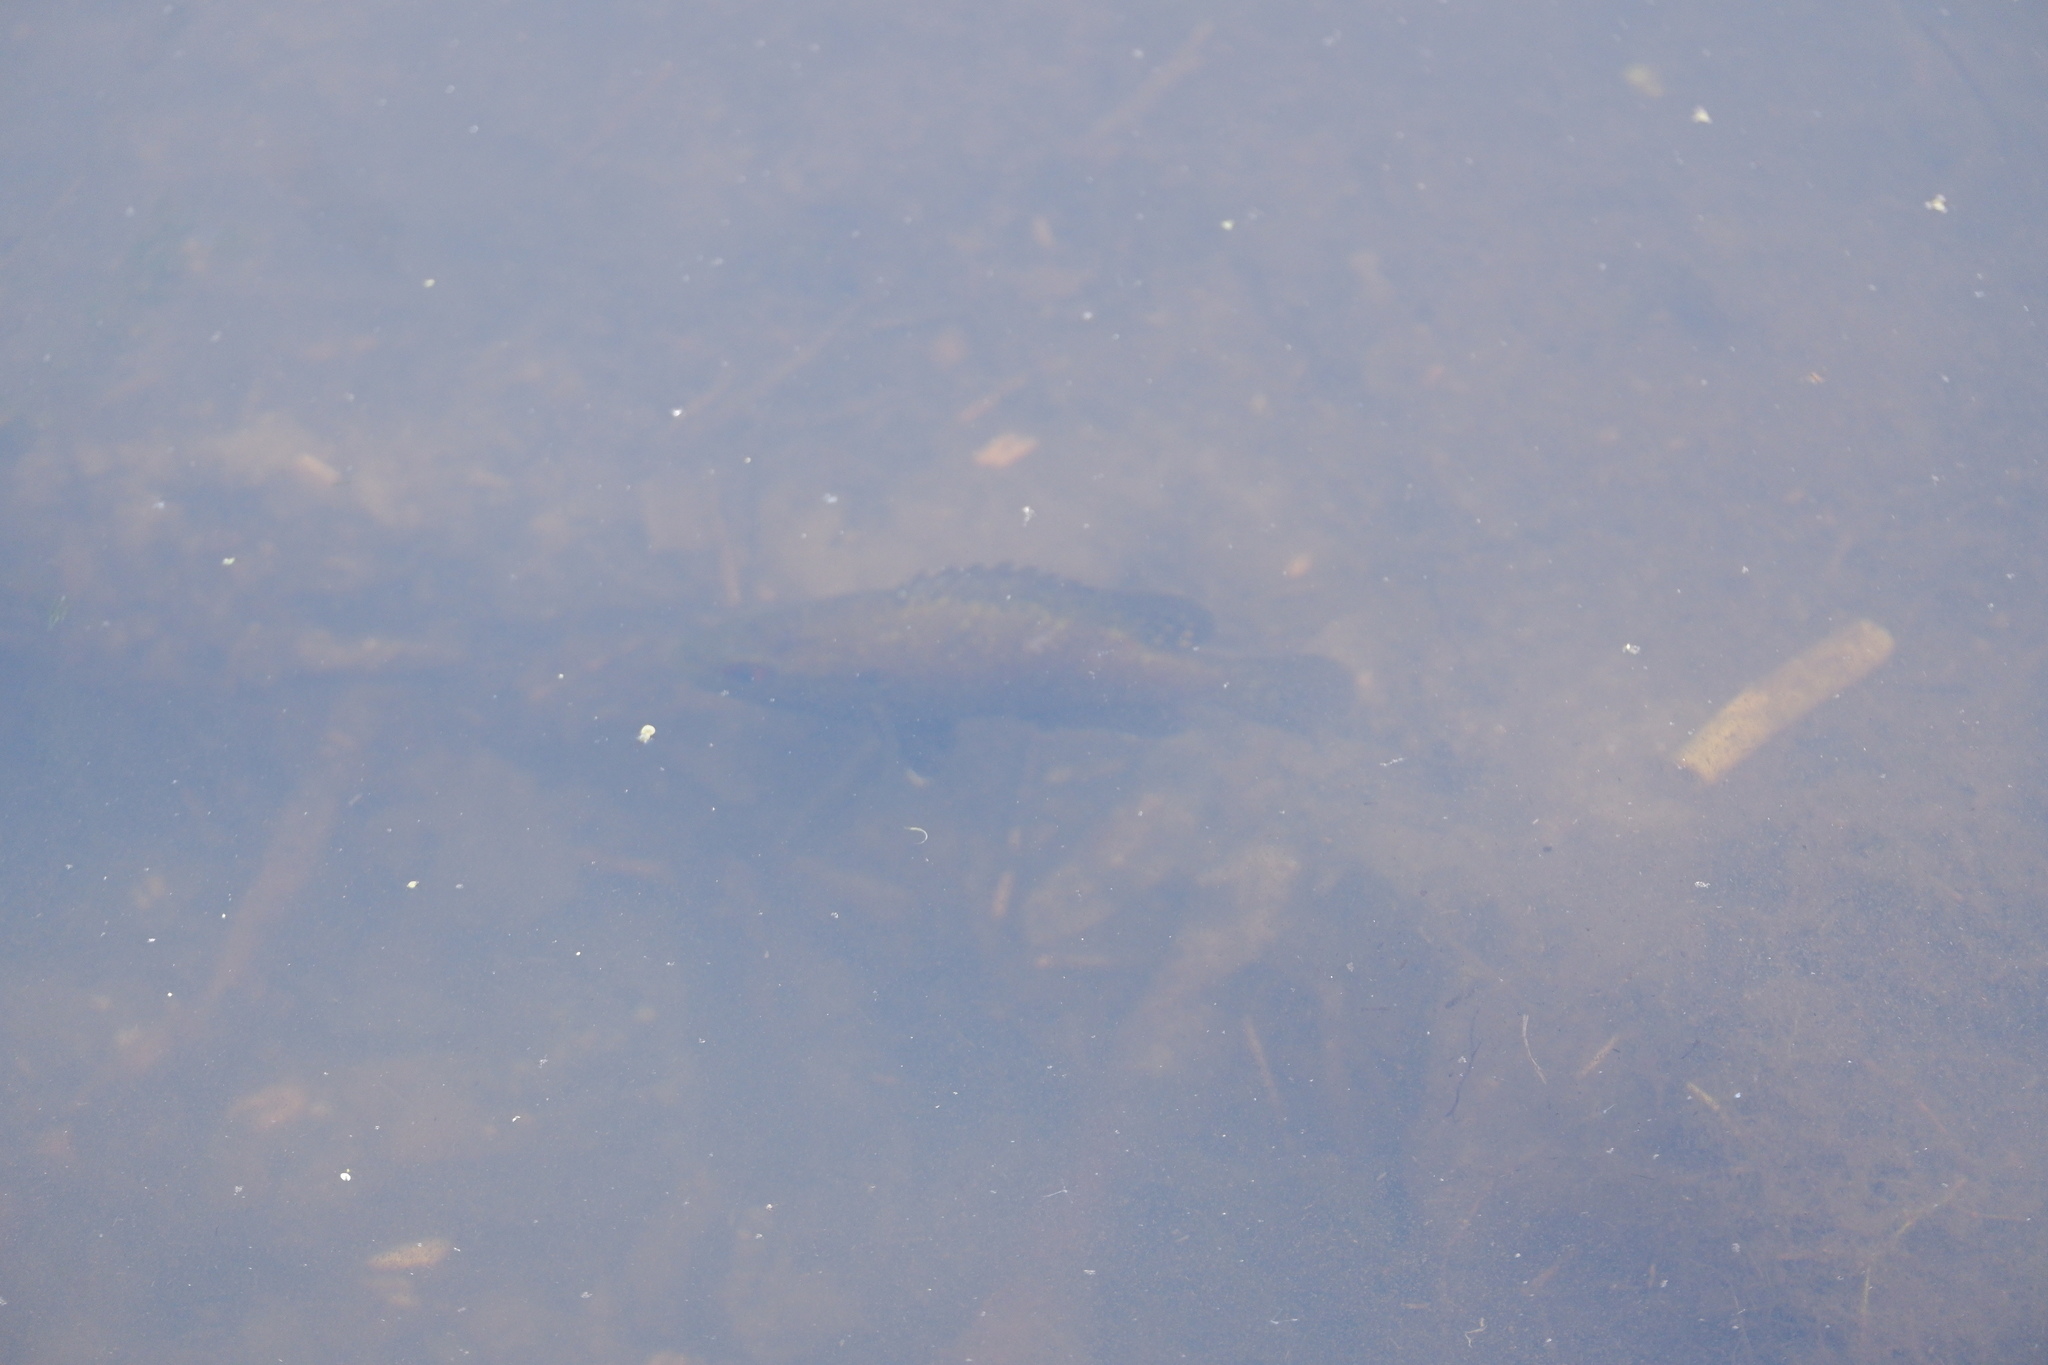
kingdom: Animalia
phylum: Chordata
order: Perciformes
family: Centrarchidae
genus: Lepomis
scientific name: Lepomis gulosus
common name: Warmouth
